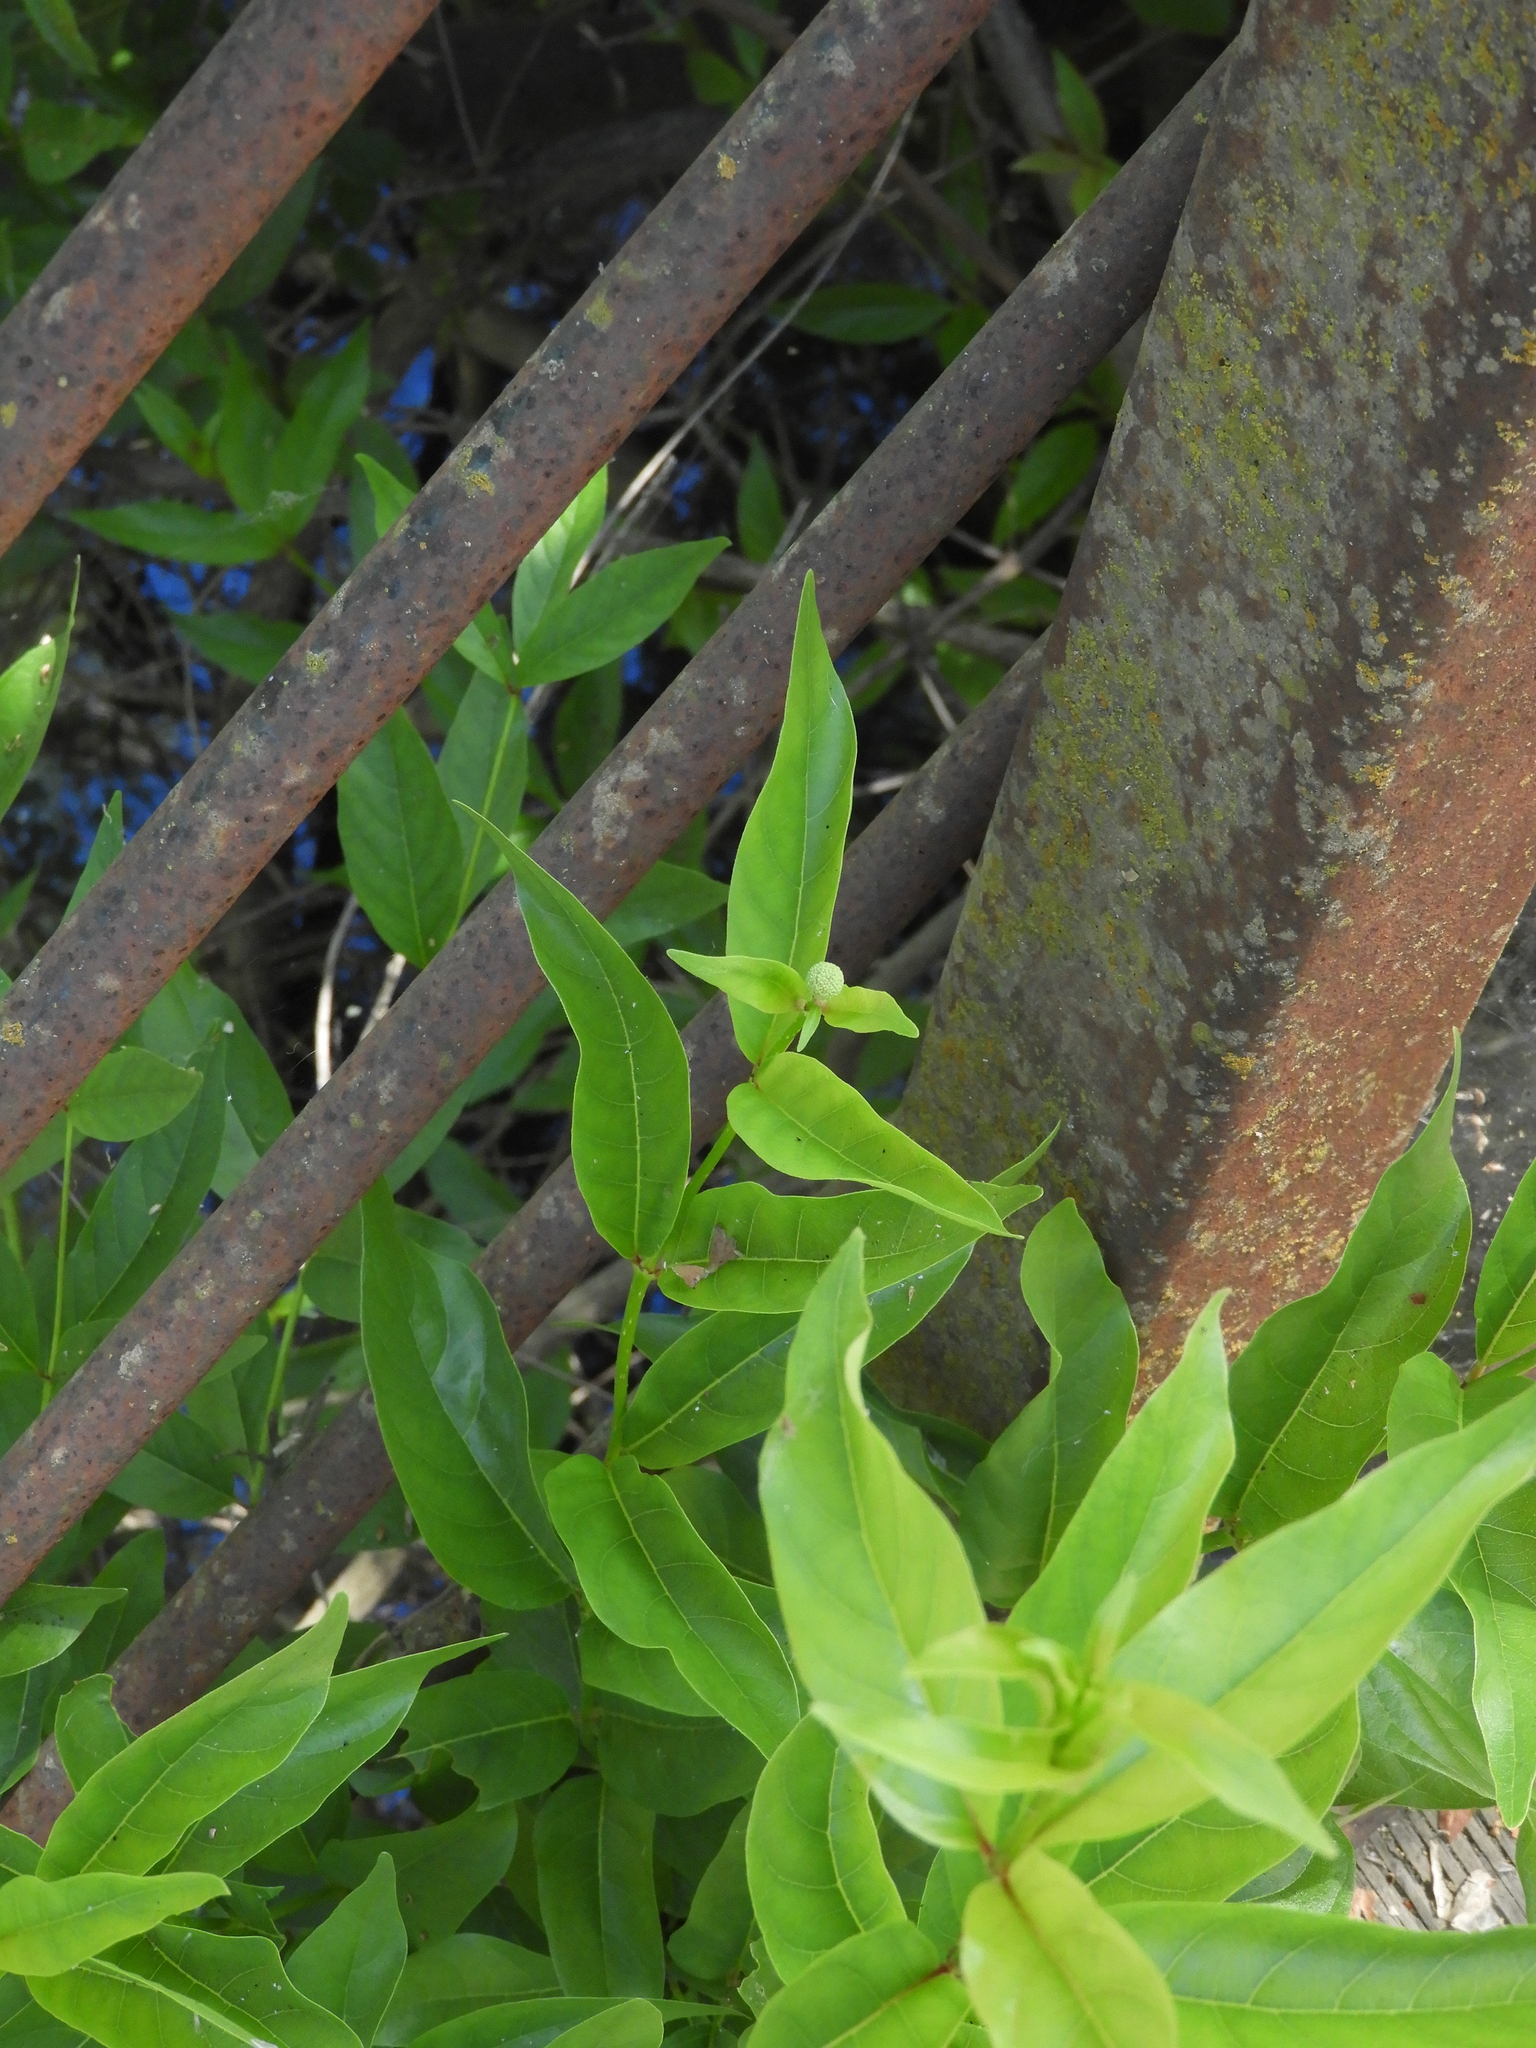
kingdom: Plantae
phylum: Tracheophyta
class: Magnoliopsida
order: Gentianales
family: Rubiaceae
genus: Cephalanthus
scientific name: Cephalanthus occidentalis
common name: Button-willow
